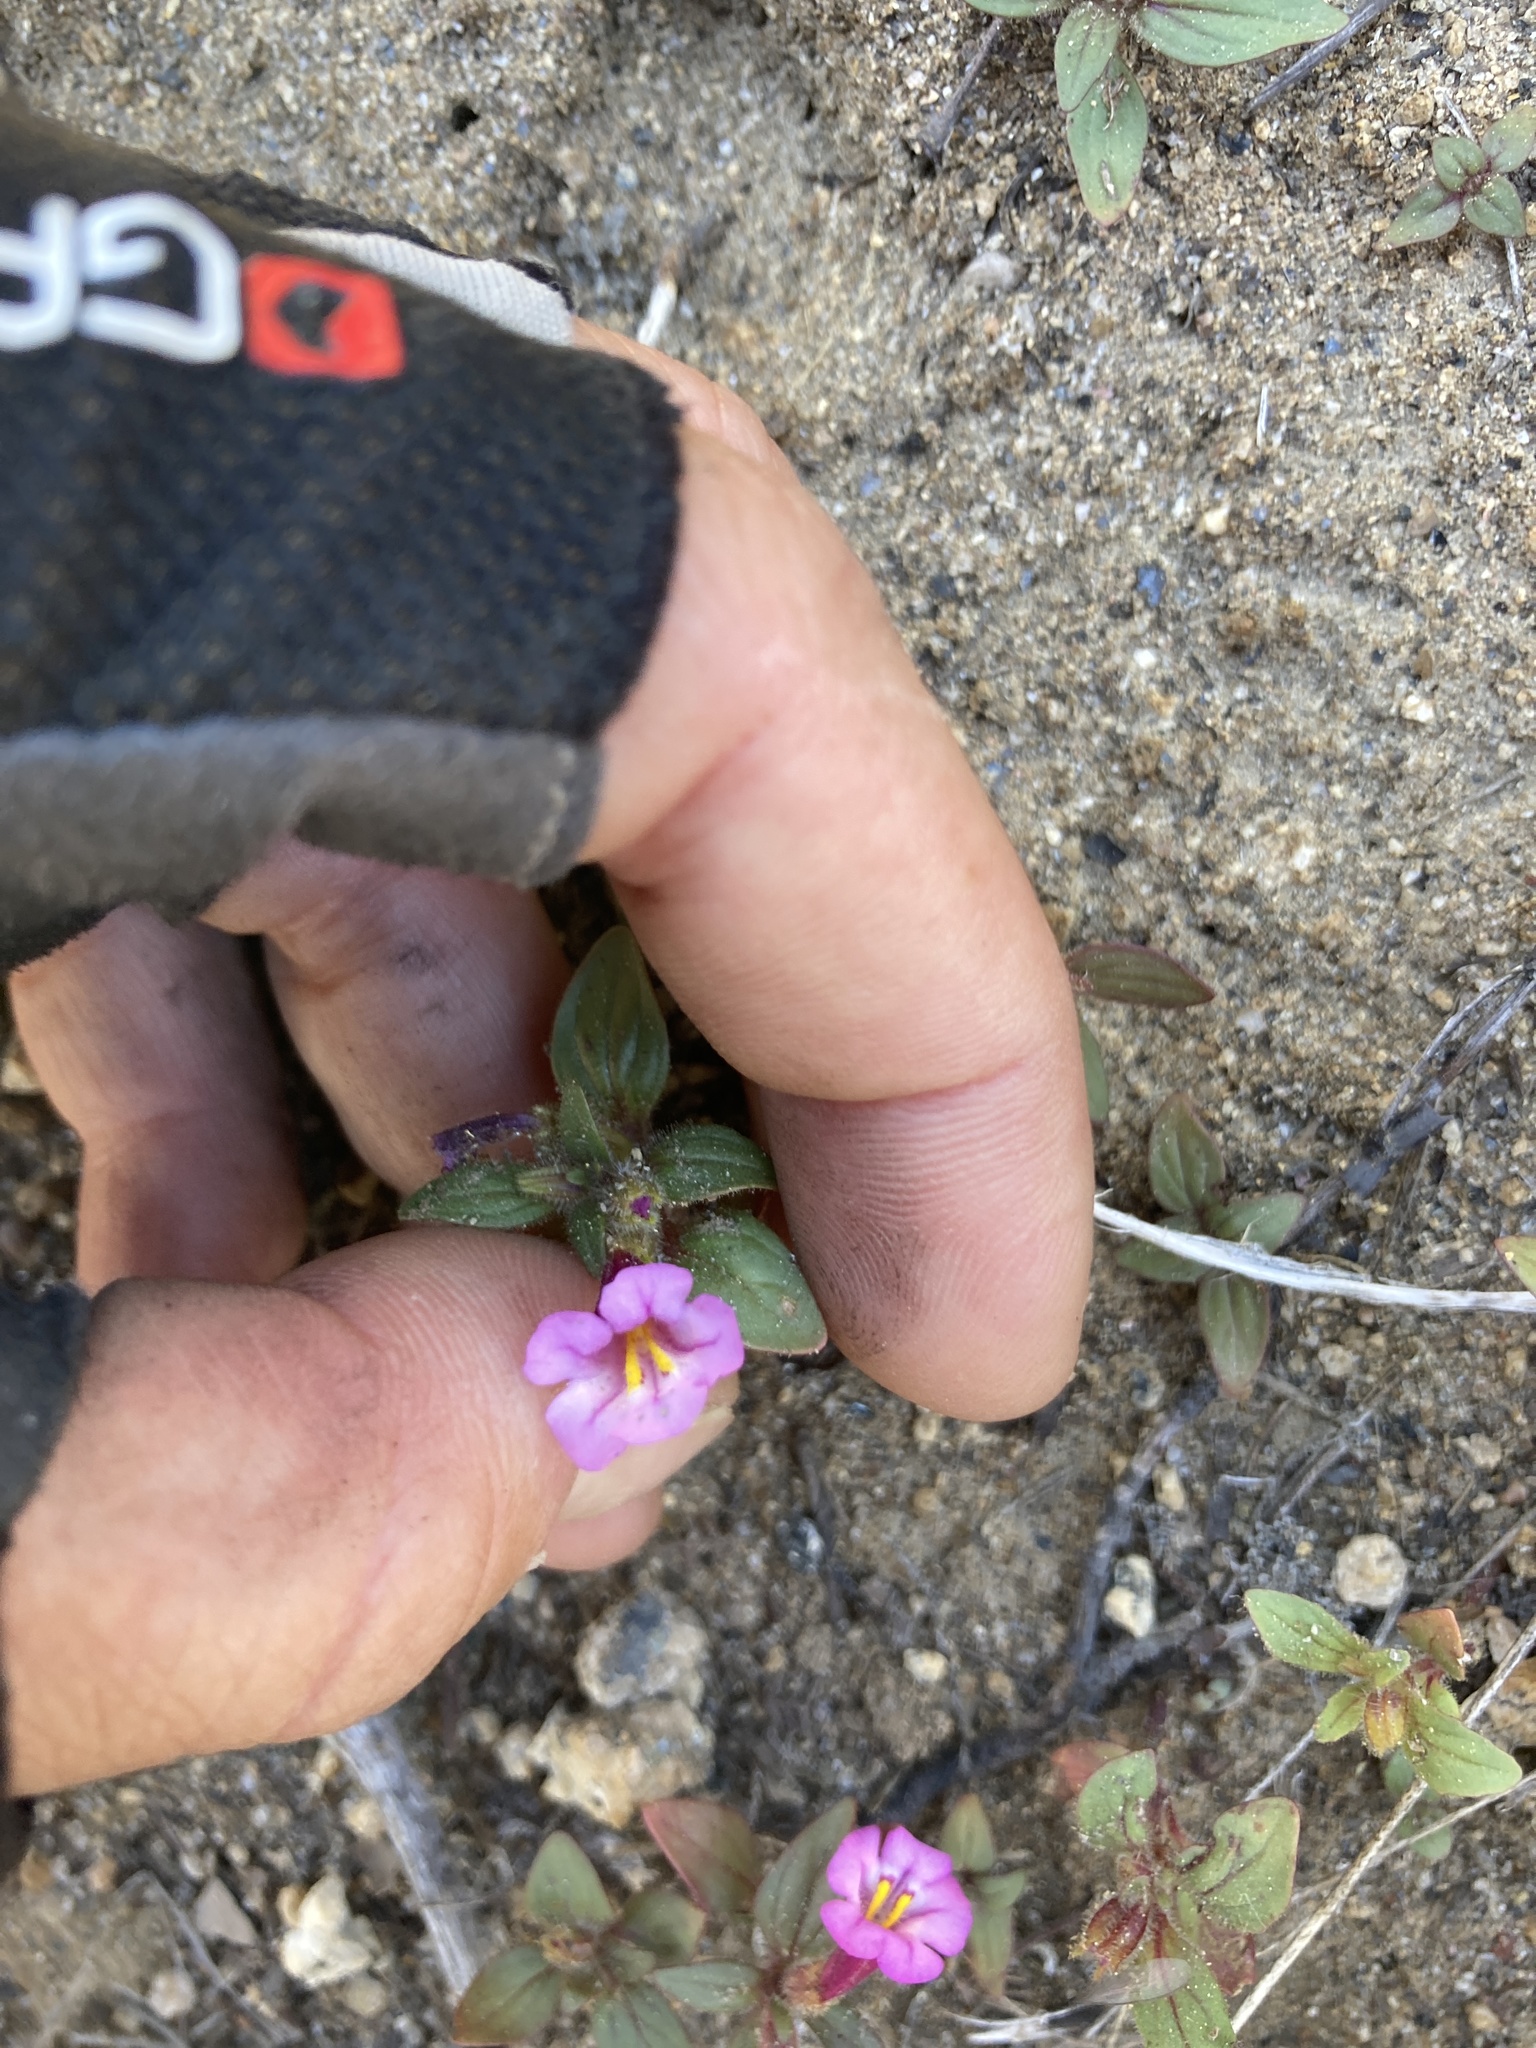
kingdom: Plantae
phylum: Tracheophyta
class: Magnoliopsida
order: Lamiales
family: Phrymaceae
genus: Diplacus
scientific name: Diplacus torreyi
